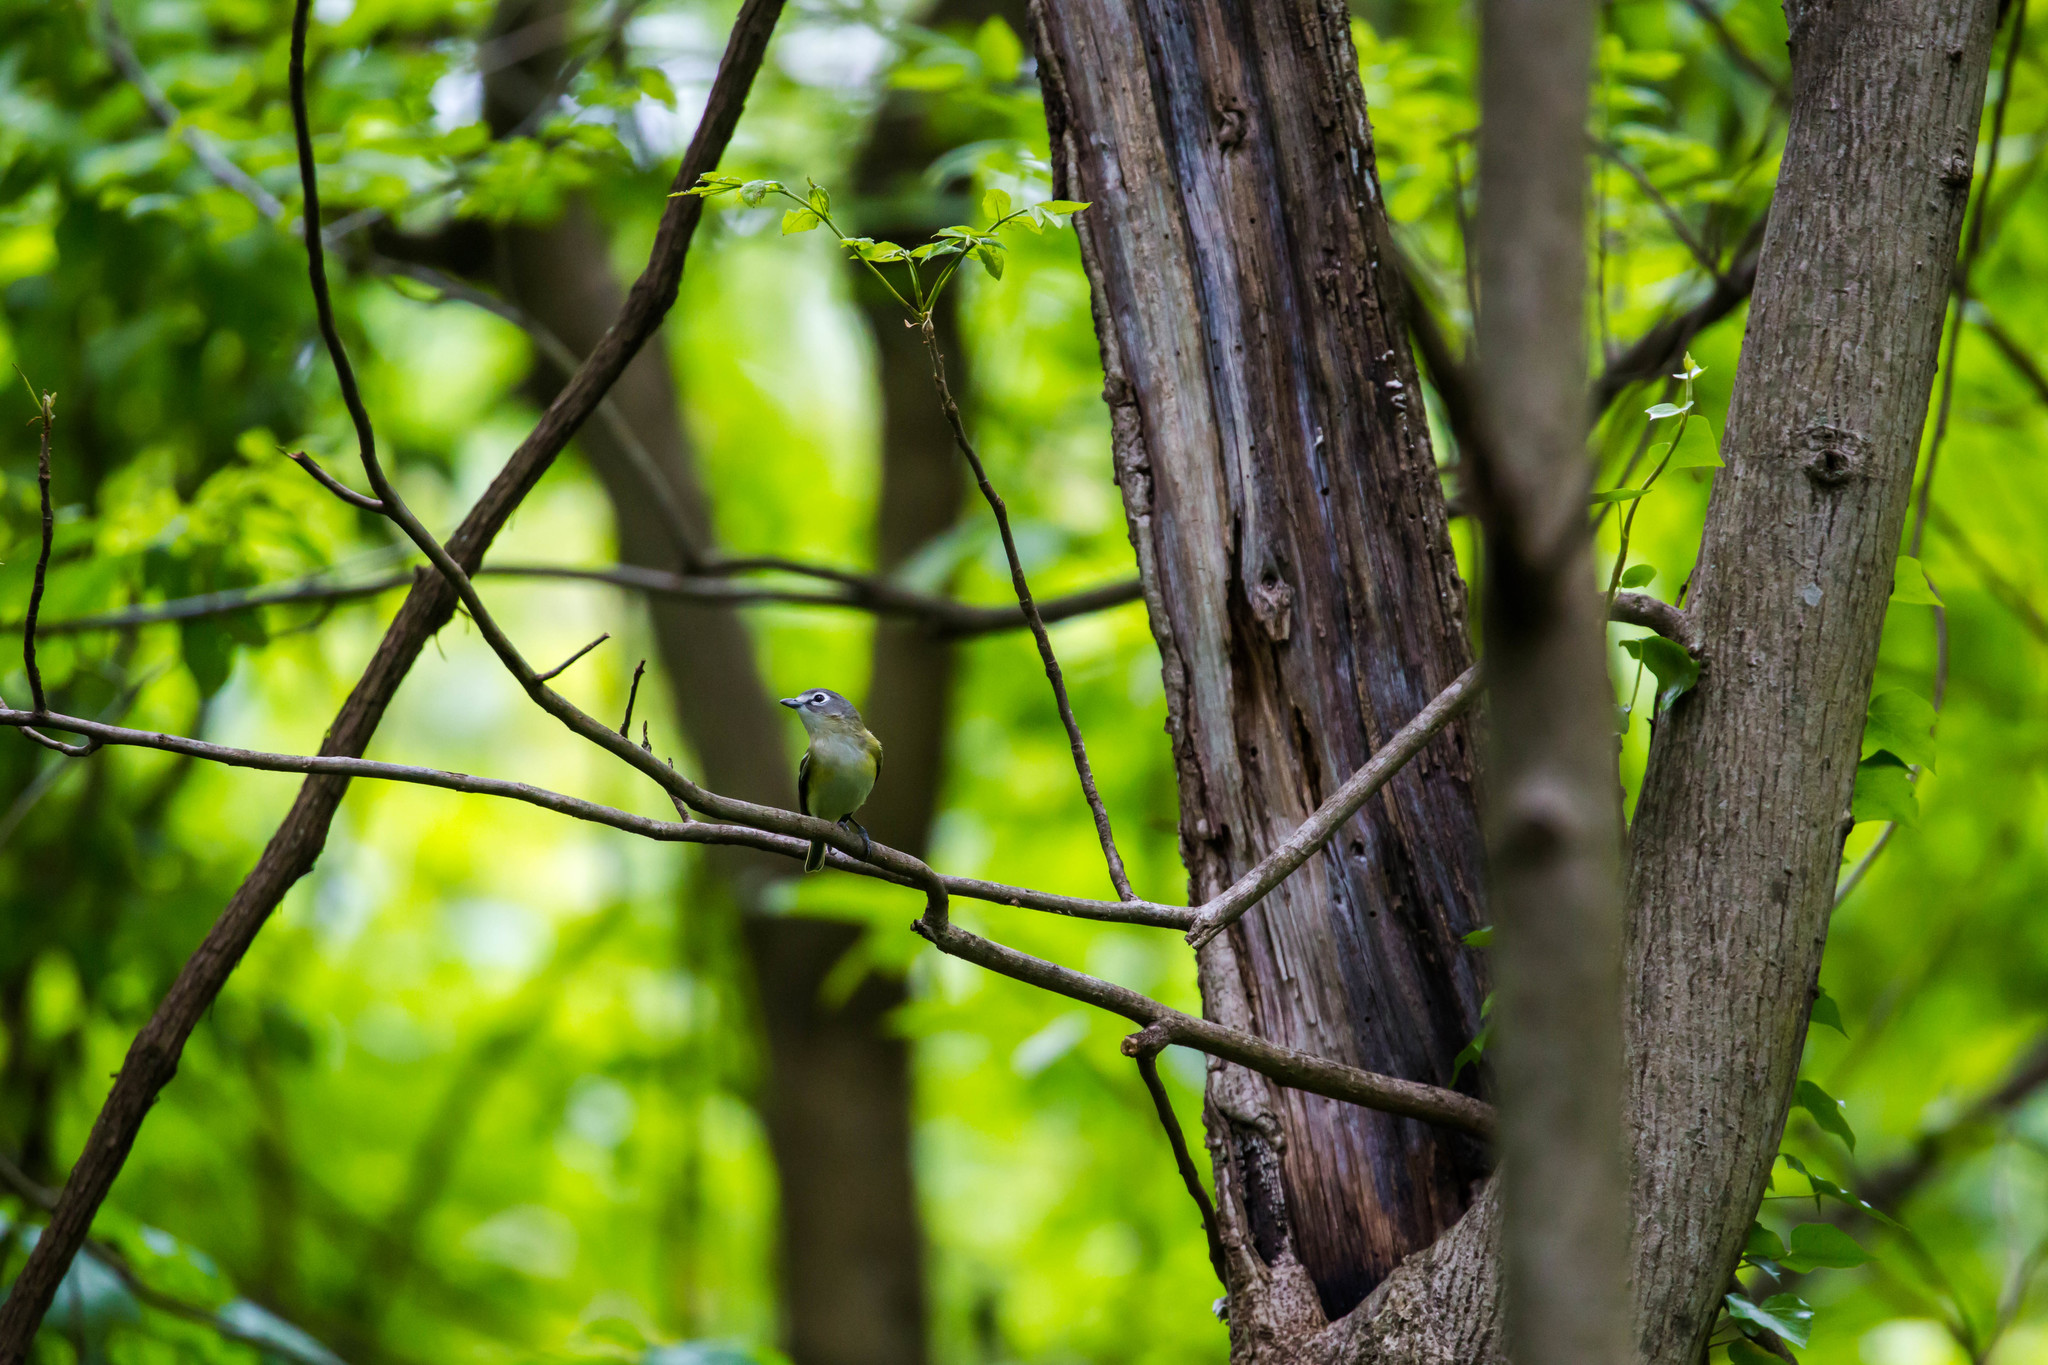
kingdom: Animalia
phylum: Chordata
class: Aves
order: Passeriformes
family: Vireonidae
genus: Vireo
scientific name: Vireo solitarius
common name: Blue-headed vireo
